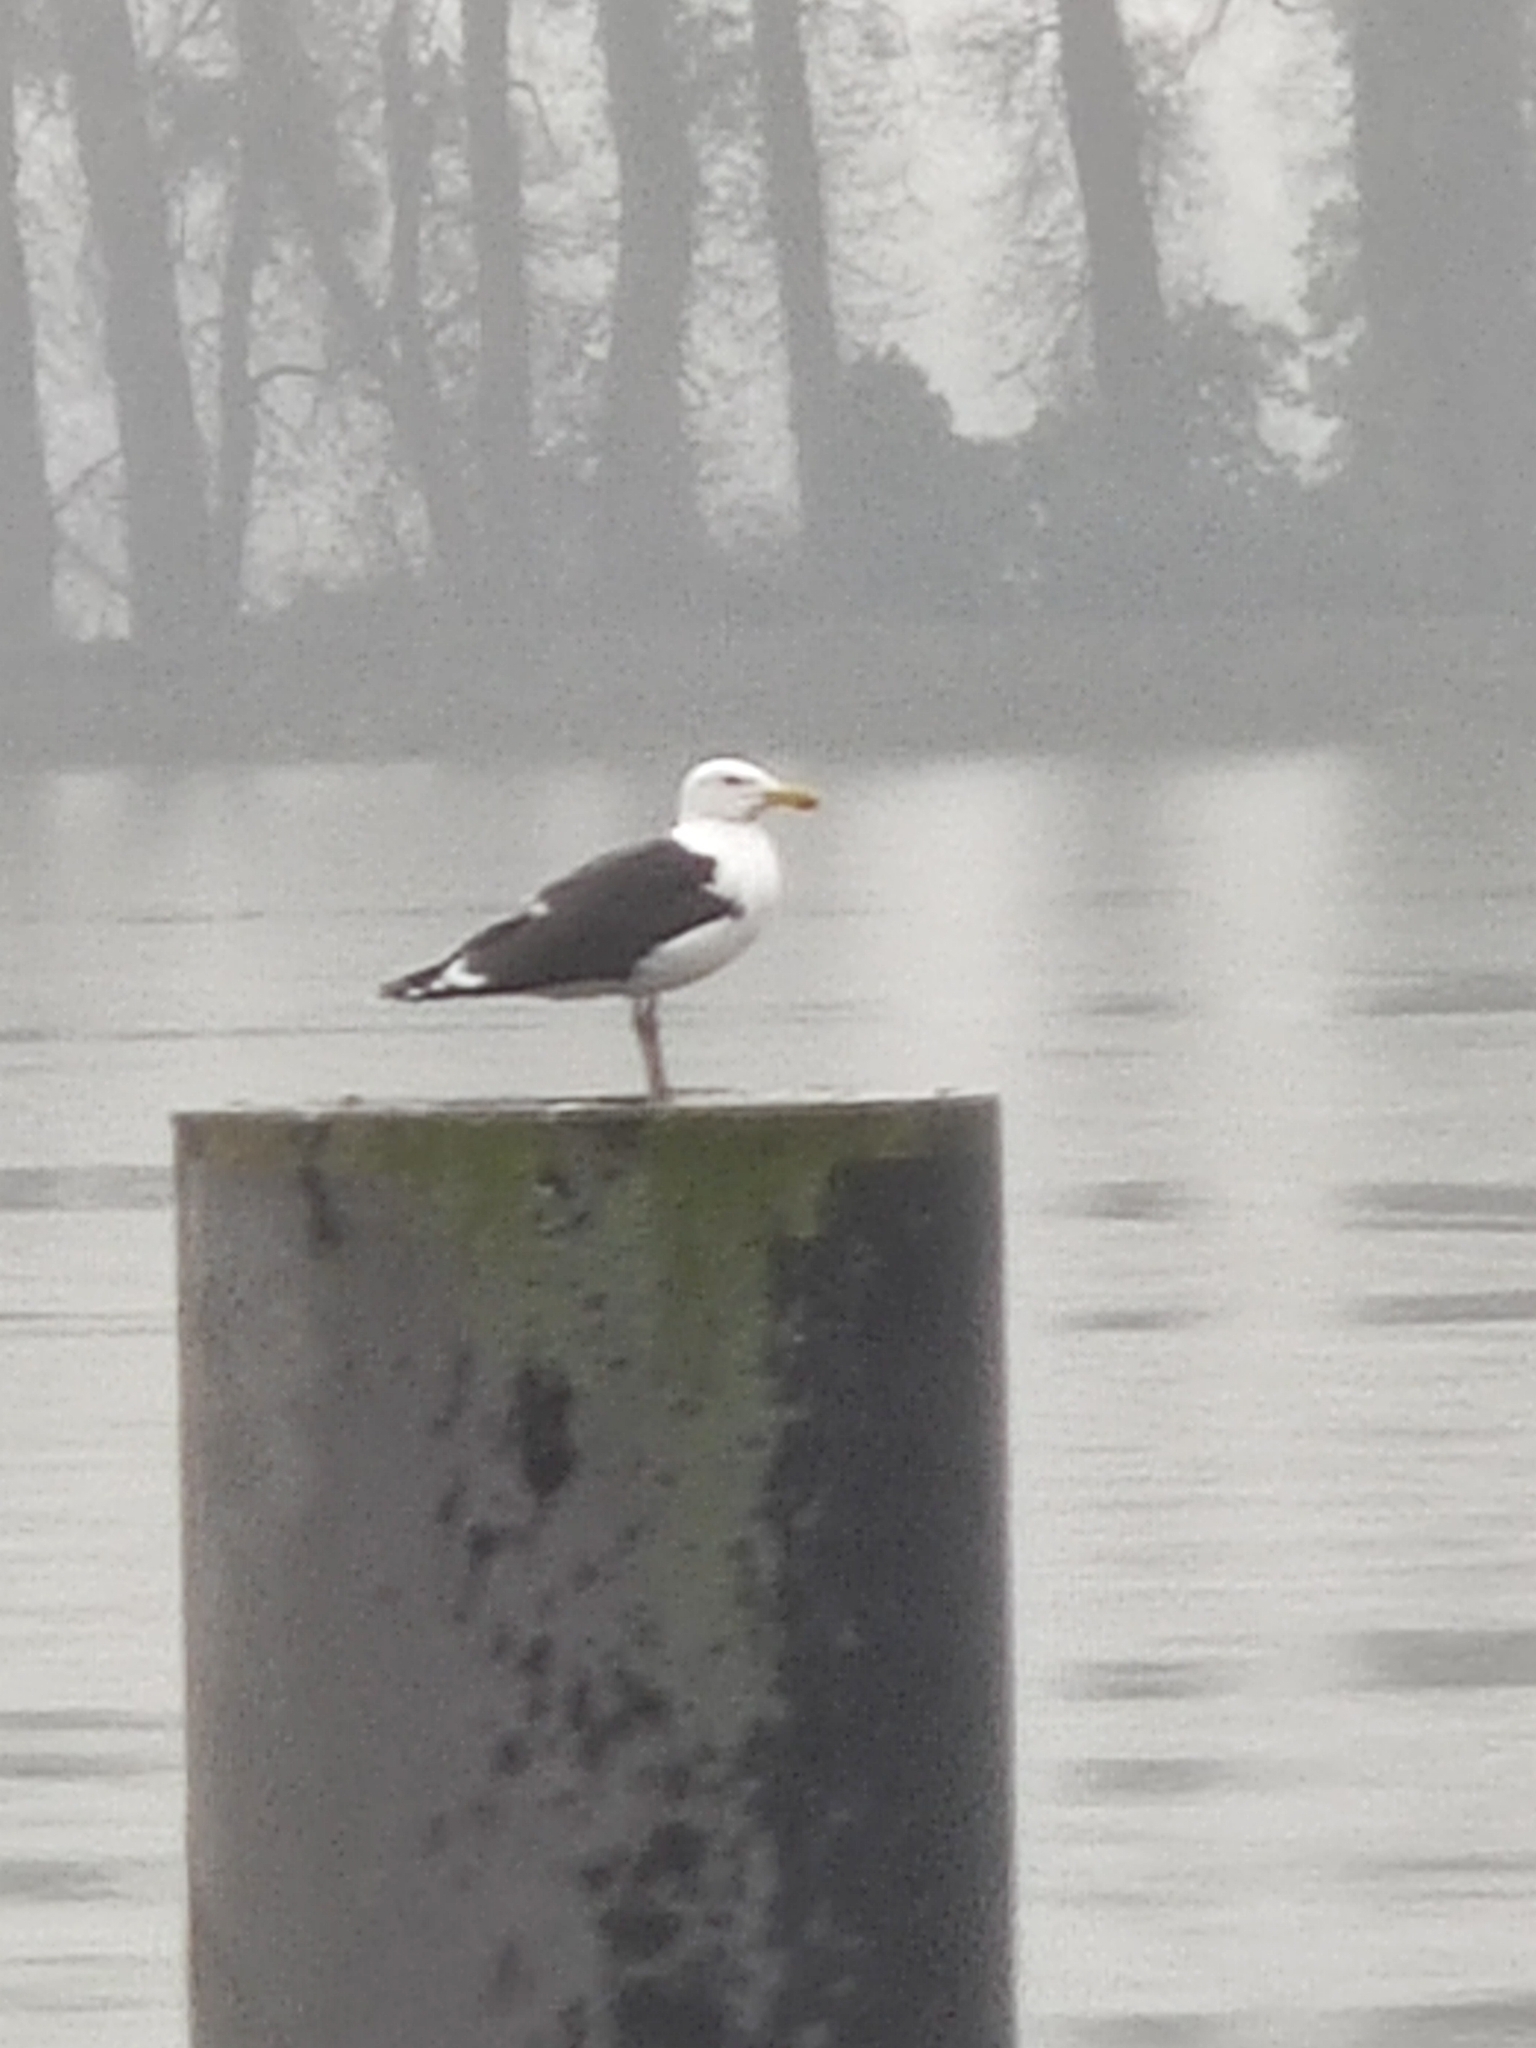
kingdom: Animalia
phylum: Chordata
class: Aves
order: Charadriiformes
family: Laridae
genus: Larus
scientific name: Larus marinus
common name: Great black-backed gull
